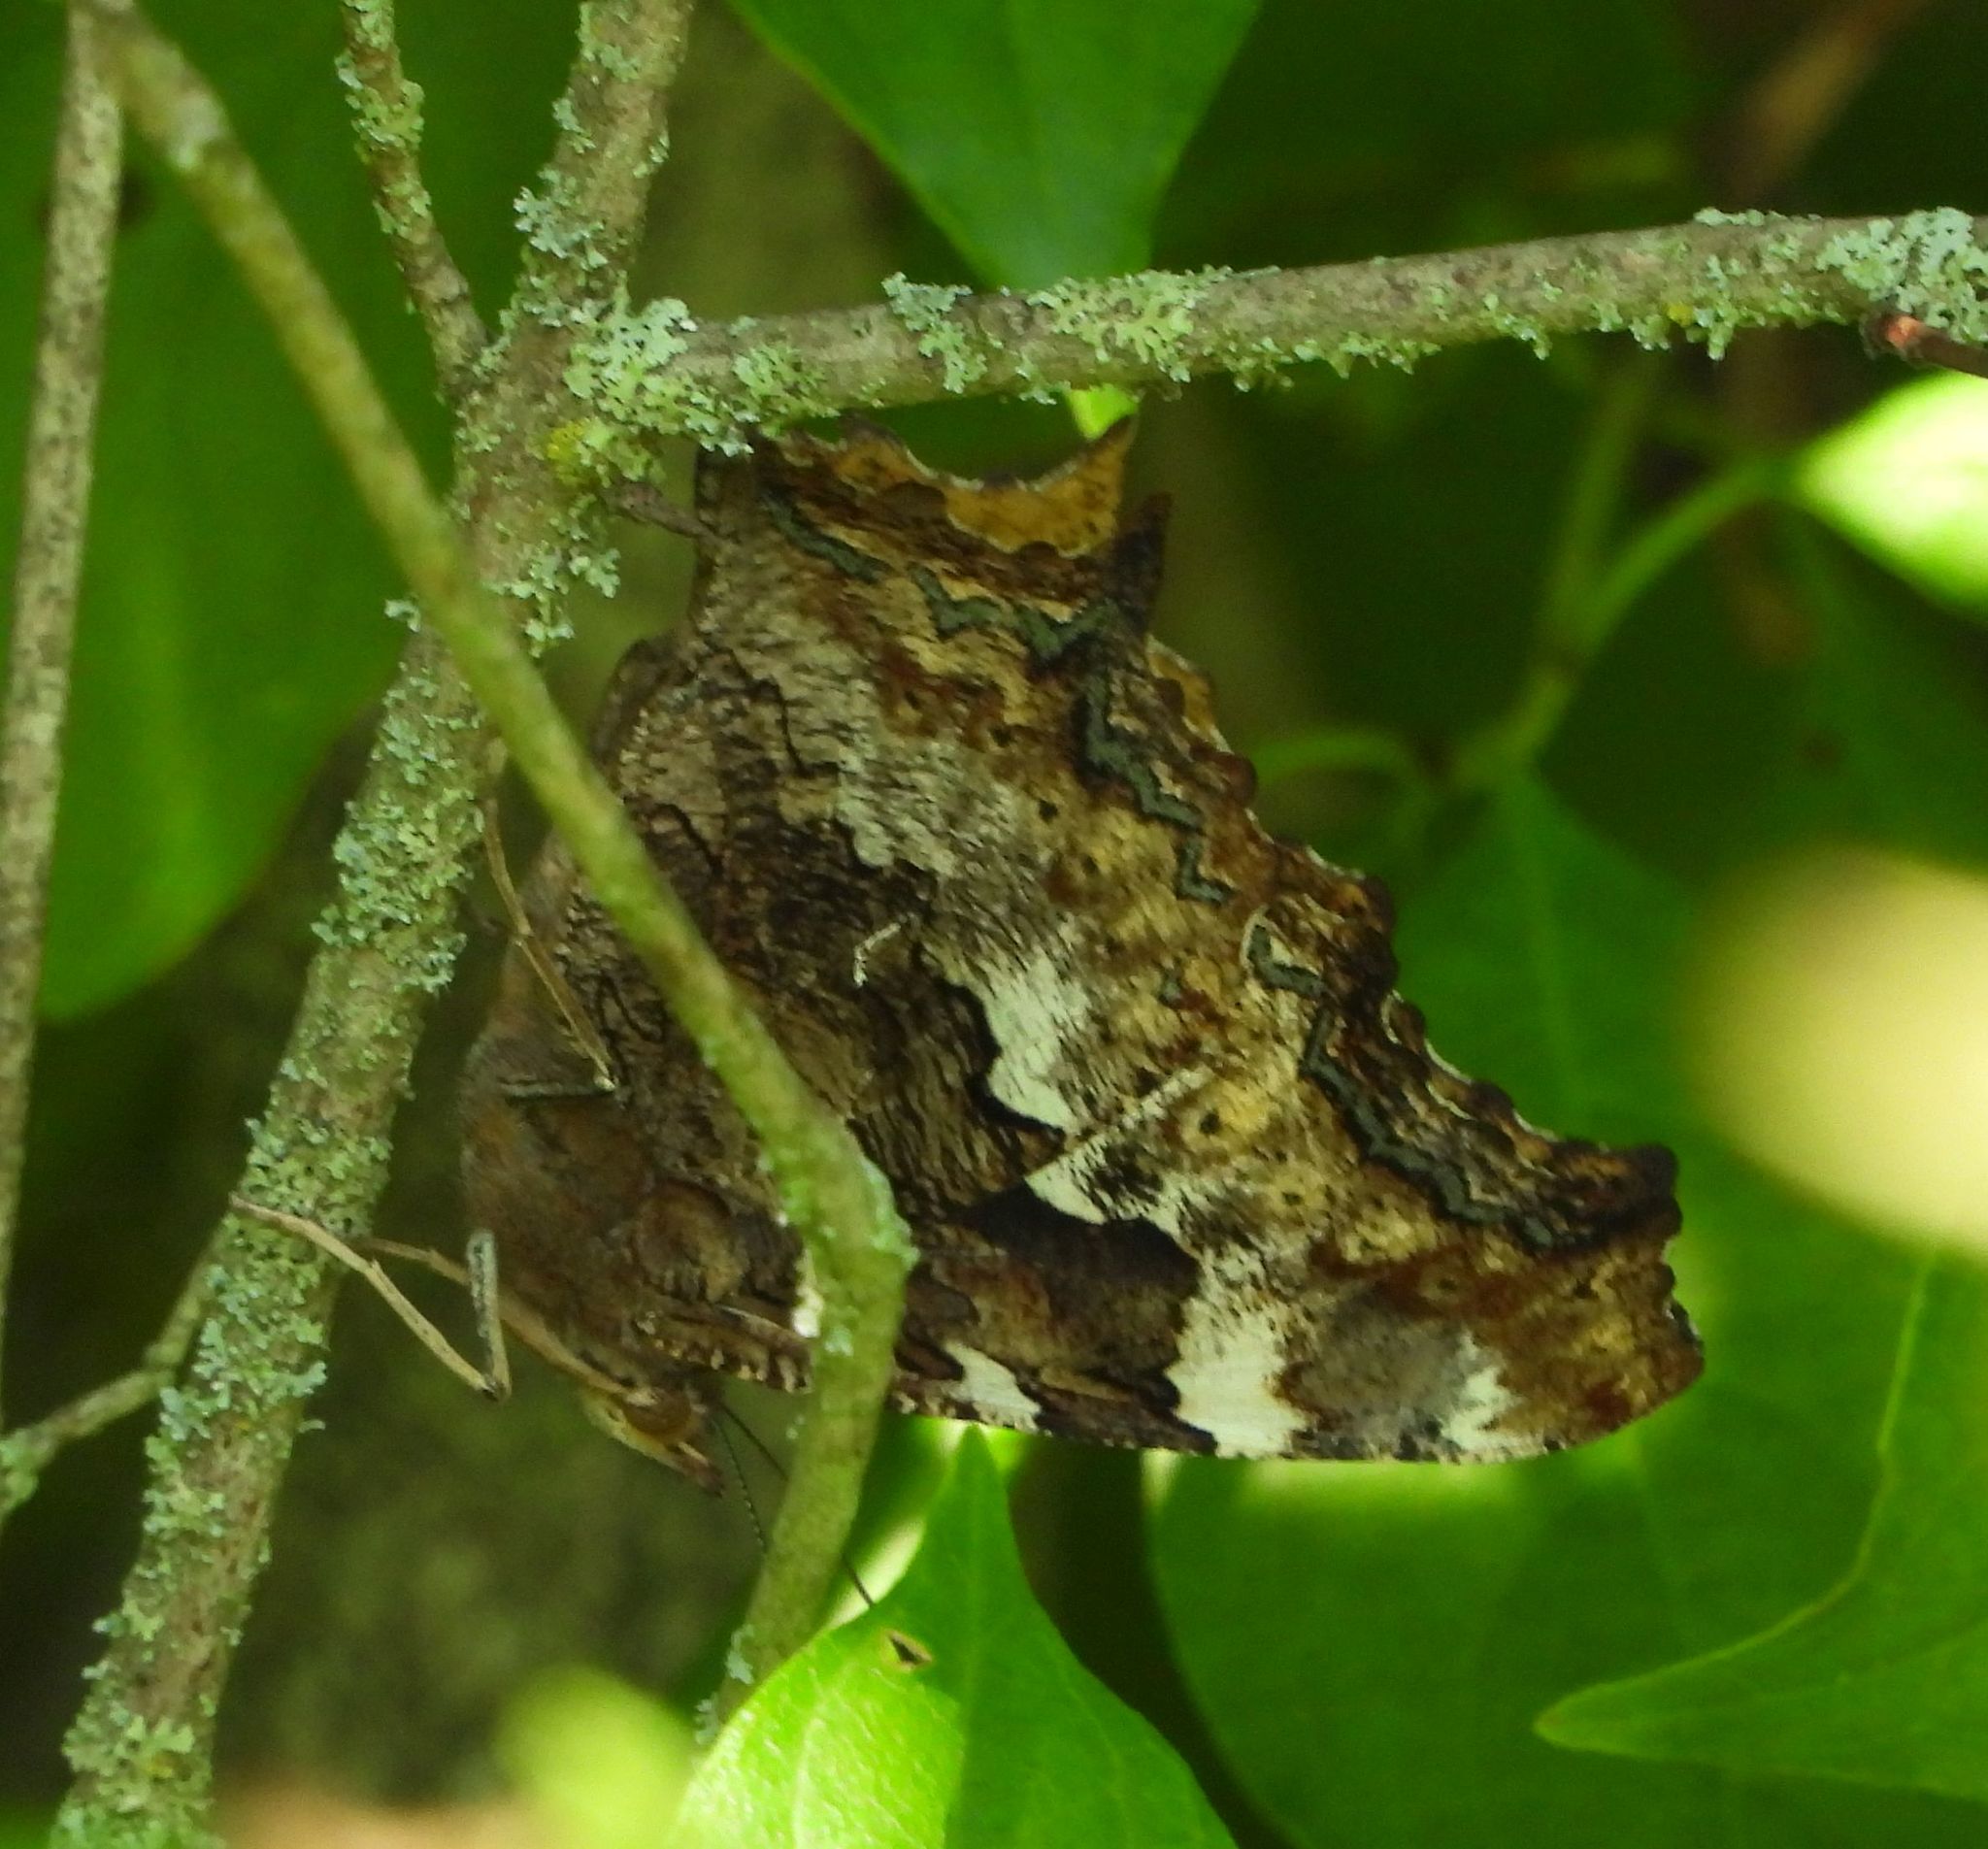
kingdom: Animalia
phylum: Arthropoda
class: Insecta
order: Lepidoptera
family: Nymphalidae
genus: Polygonia
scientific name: Polygonia vaualbum
